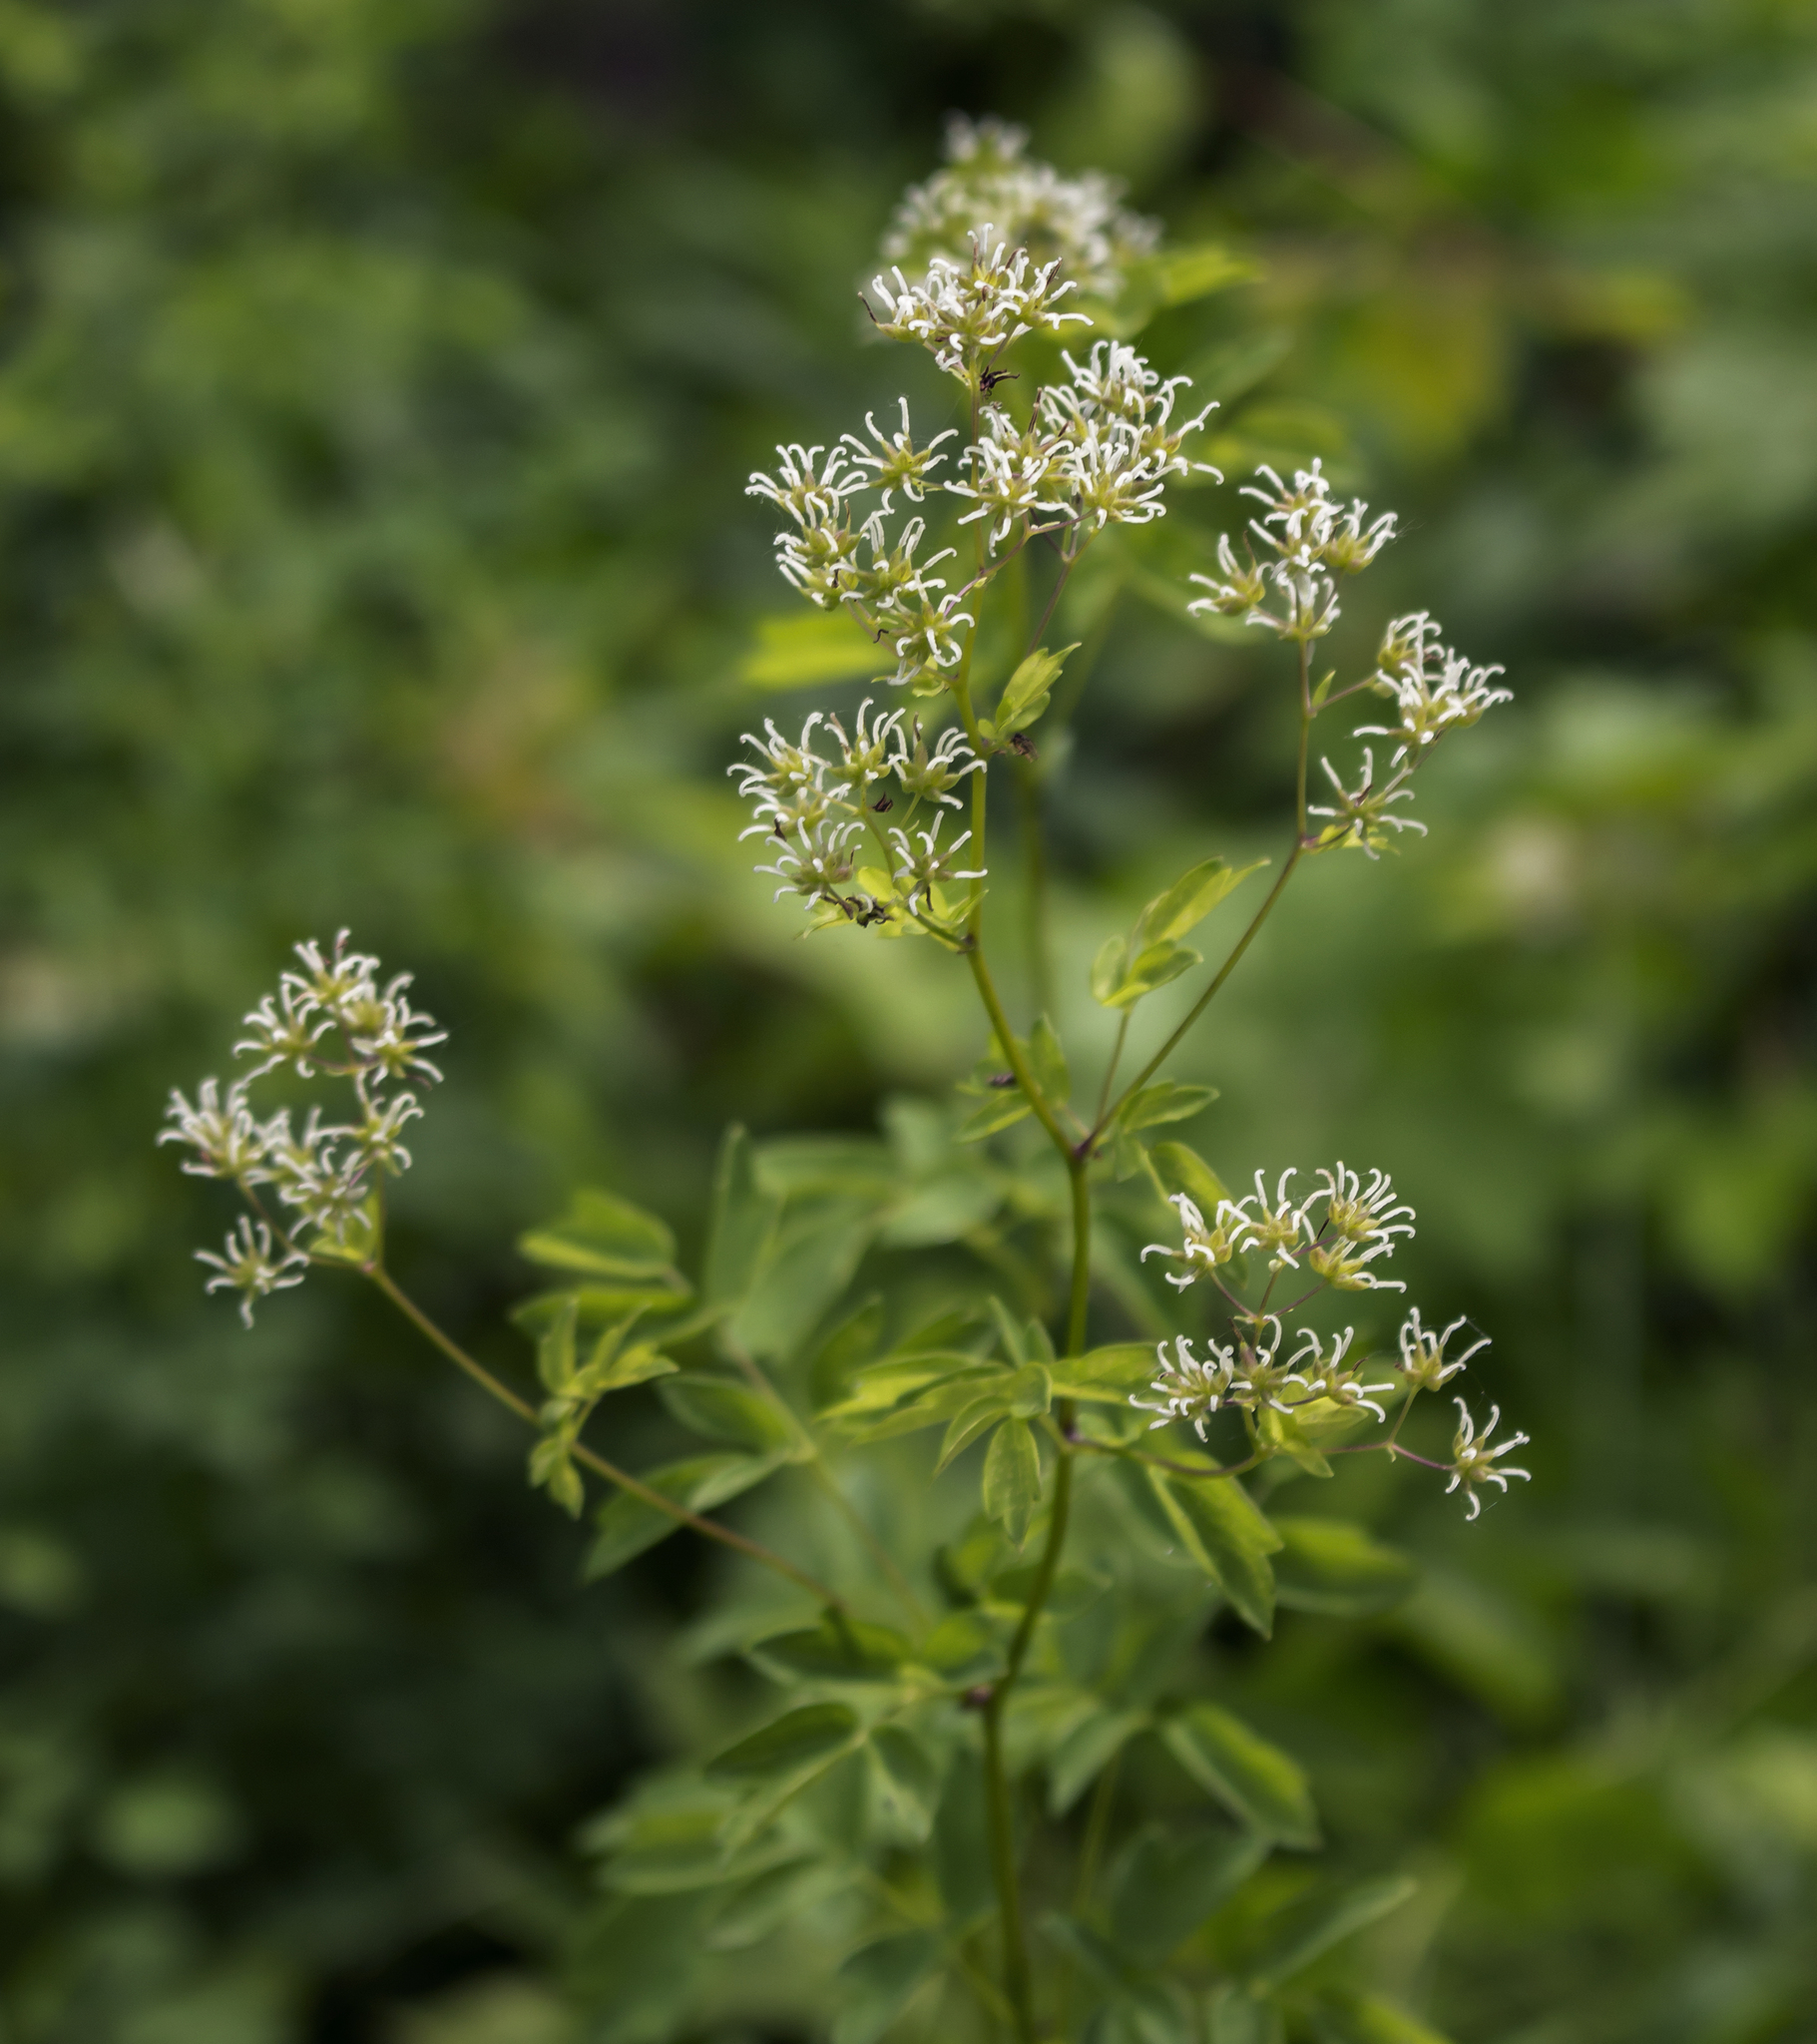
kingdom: Plantae
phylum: Tracheophyta
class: Magnoliopsida
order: Ranunculales
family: Ranunculaceae
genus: Thalictrum
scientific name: Thalictrum dasycarpum
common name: Purple meadow-rue
